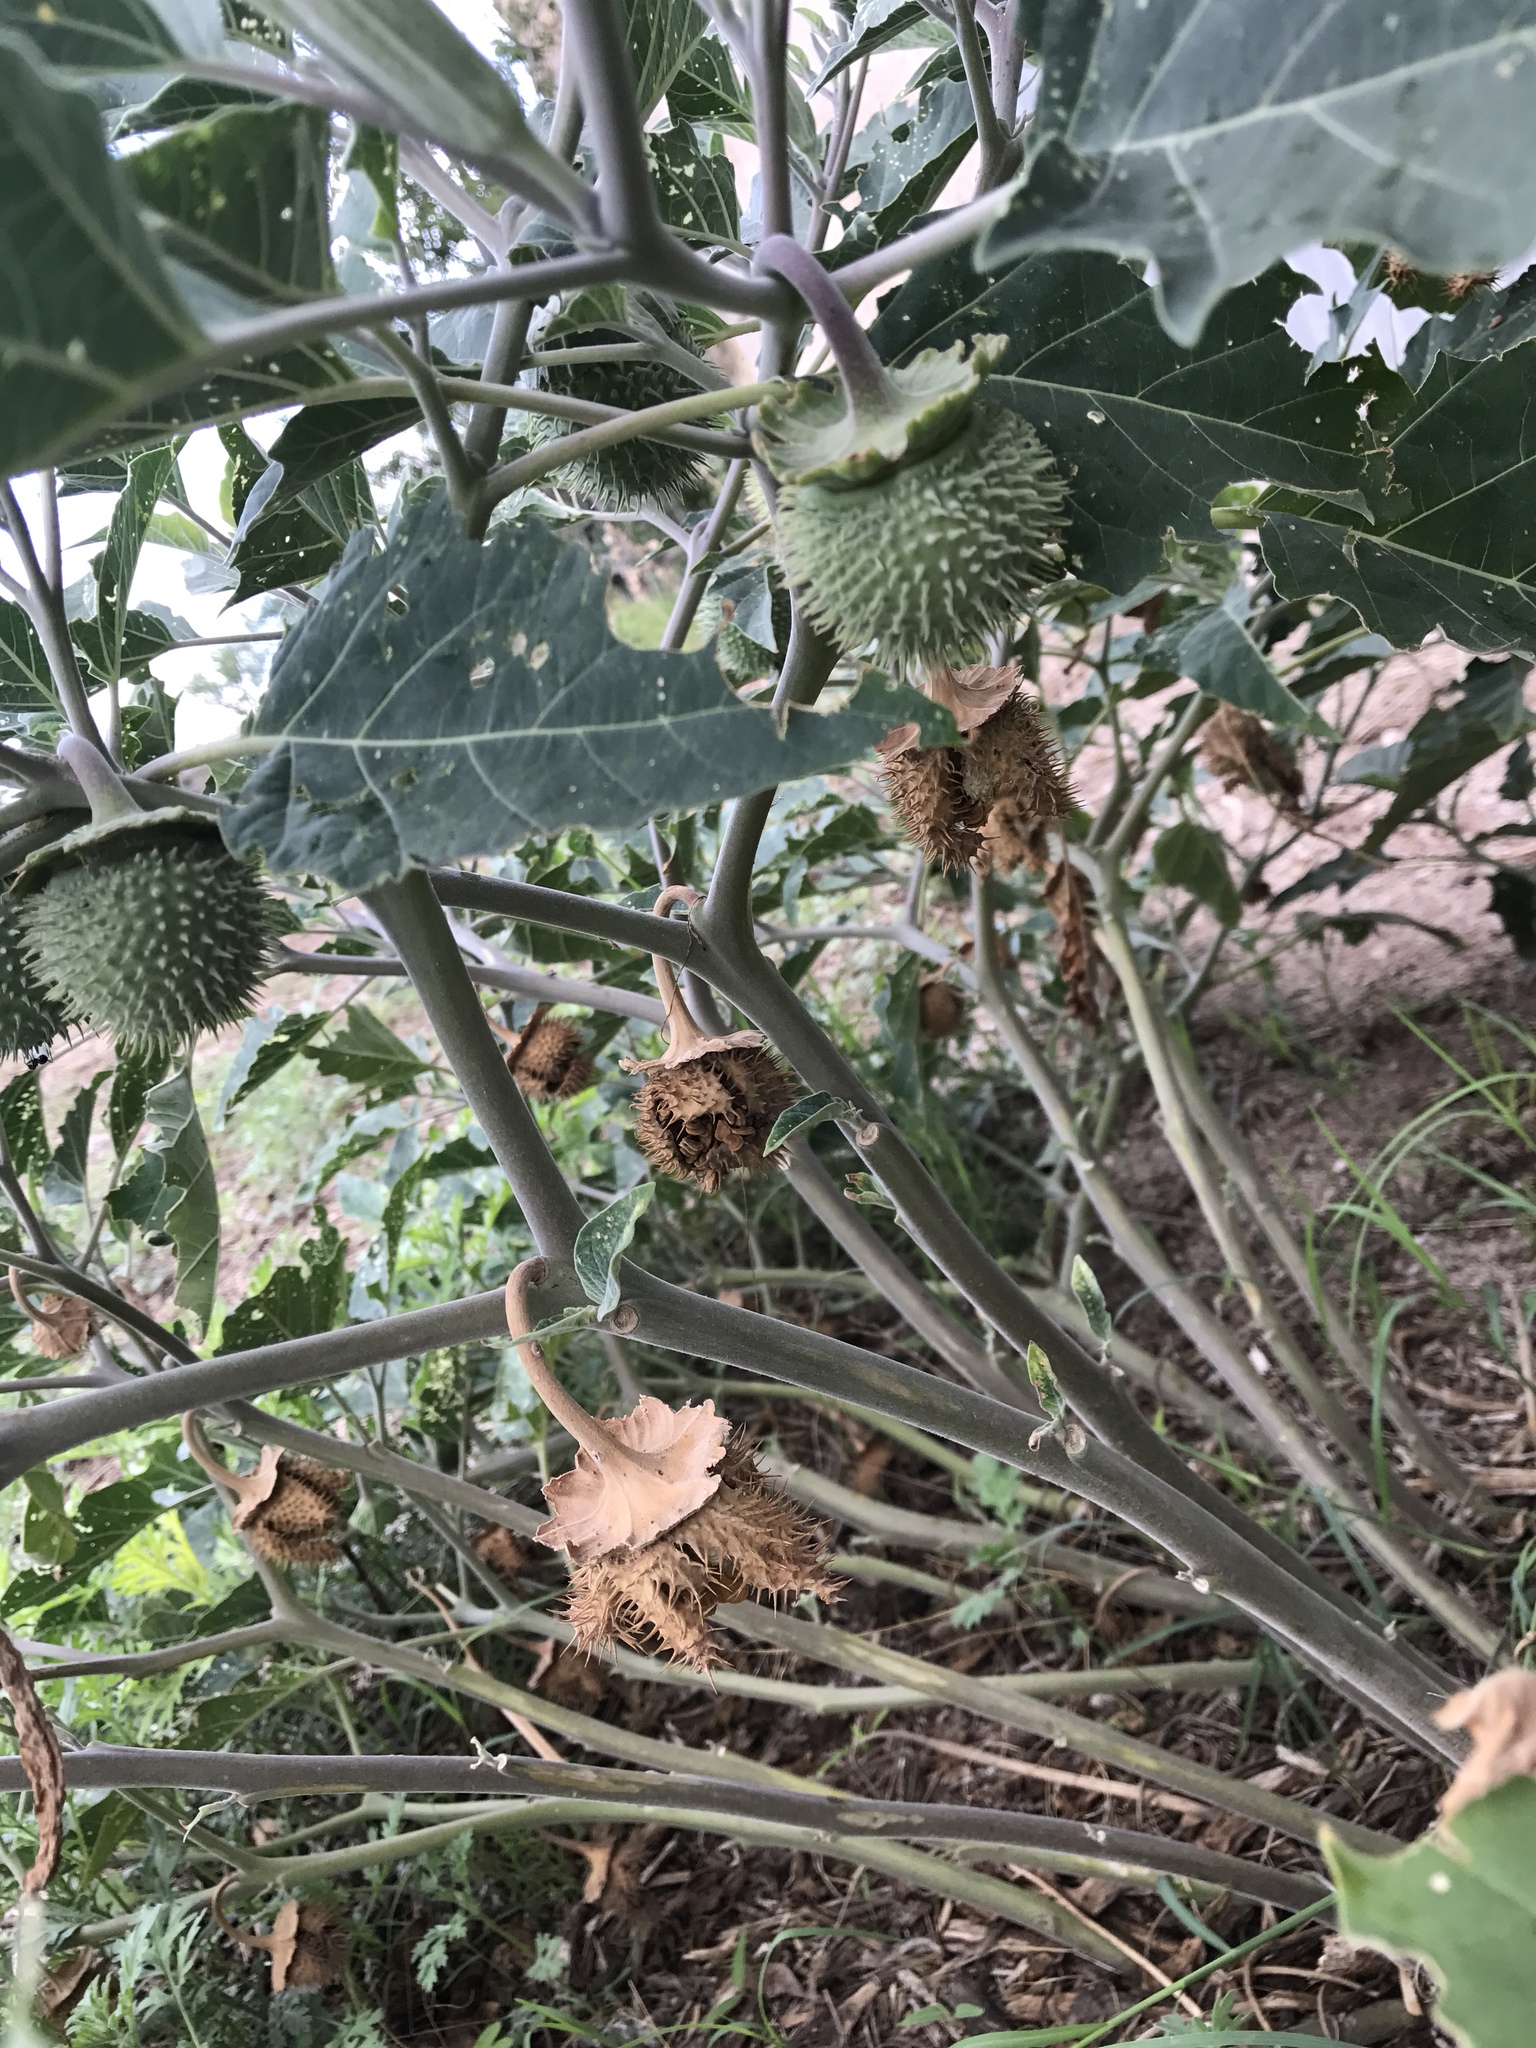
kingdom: Plantae
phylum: Tracheophyta
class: Magnoliopsida
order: Solanales
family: Solanaceae
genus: Datura
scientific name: Datura wrightii
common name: Sacred thorn-apple
